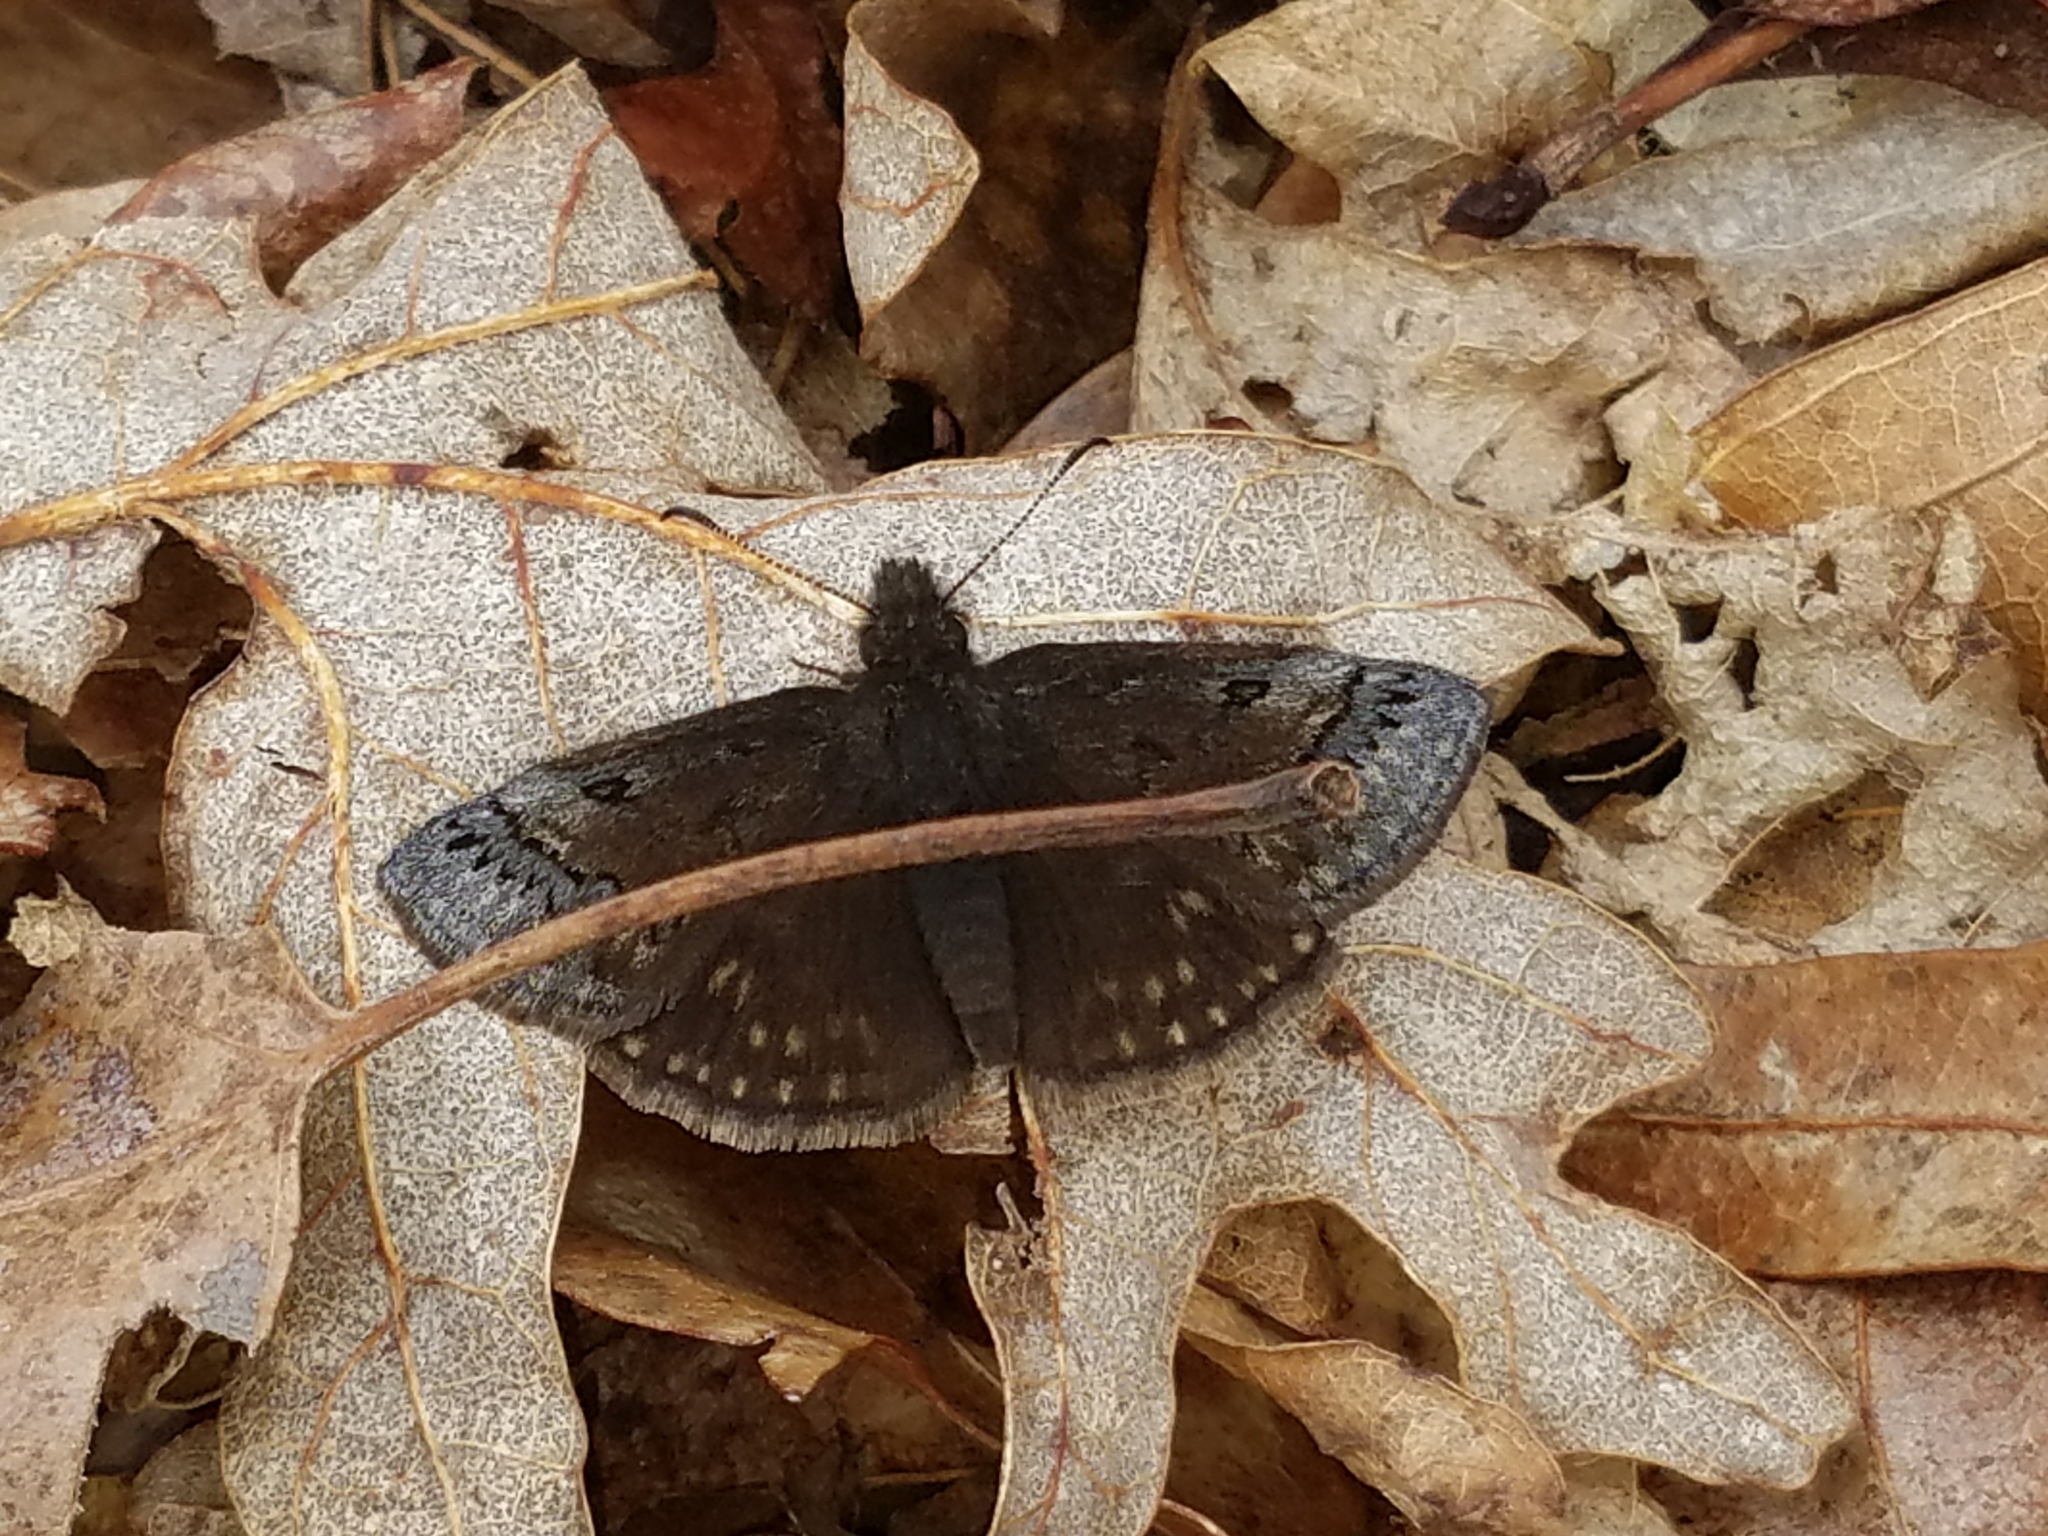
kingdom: Animalia
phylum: Arthropoda
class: Insecta
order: Lepidoptera
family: Hesperiidae
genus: Erynnis
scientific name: Erynnis brizo
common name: Sleepy duskywing
